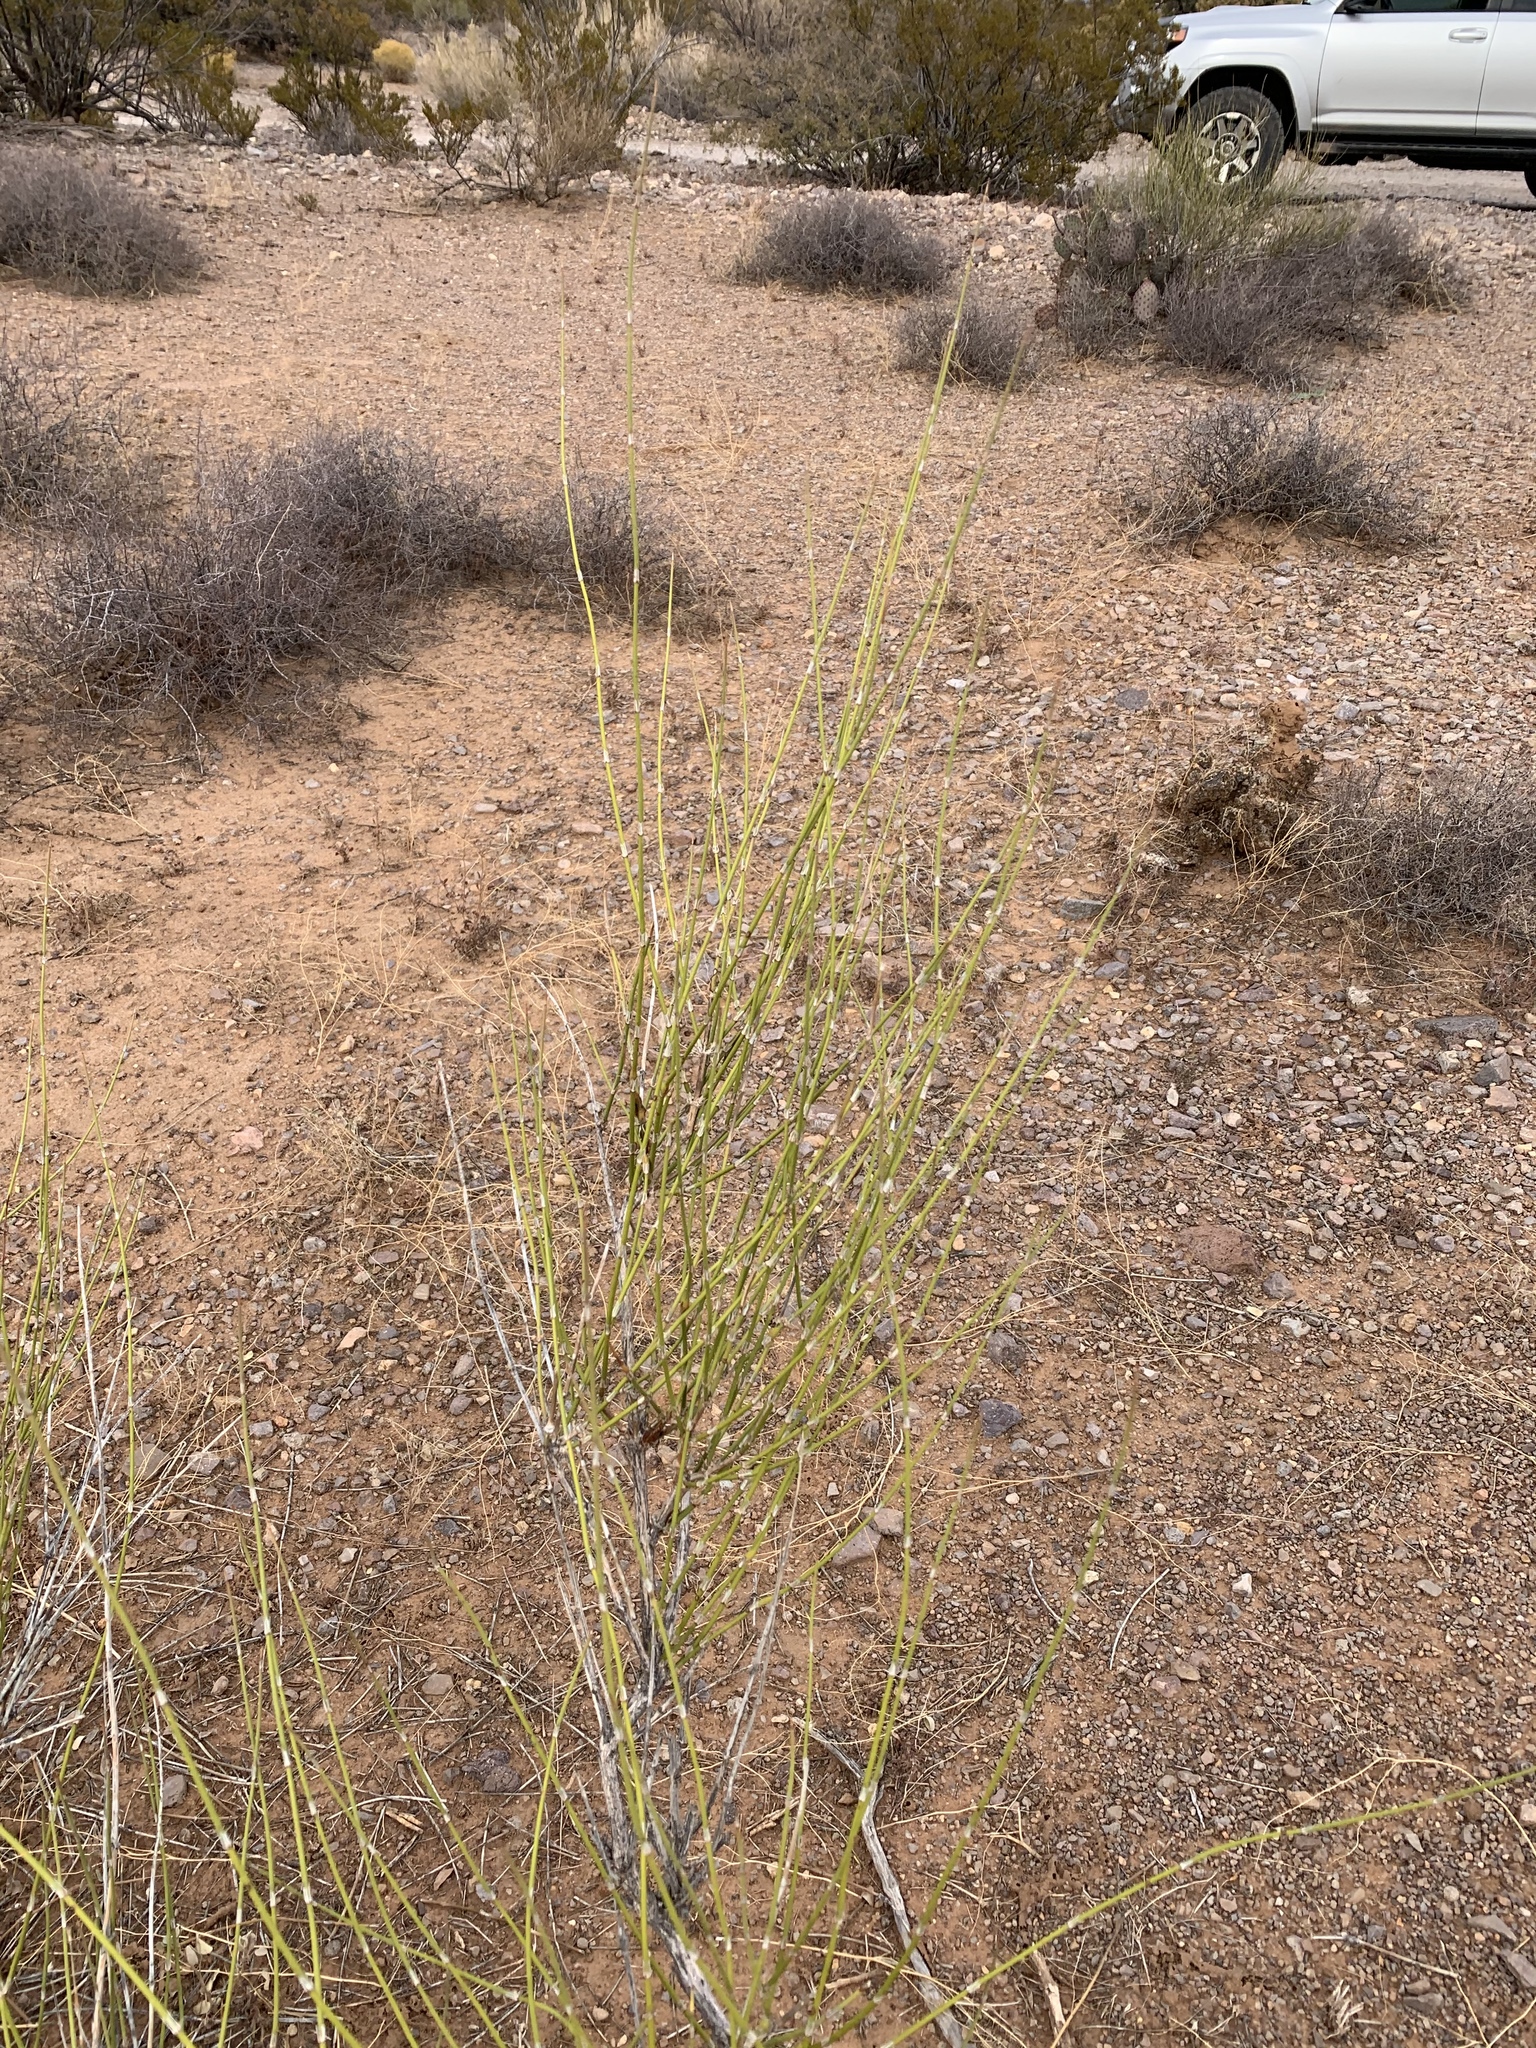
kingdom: Plantae
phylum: Tracheophyta
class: Gnetopsida
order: Ephedrales
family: Ephedraceae
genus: Ephedra
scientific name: Ephedra trifurca
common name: Mexican-tea
